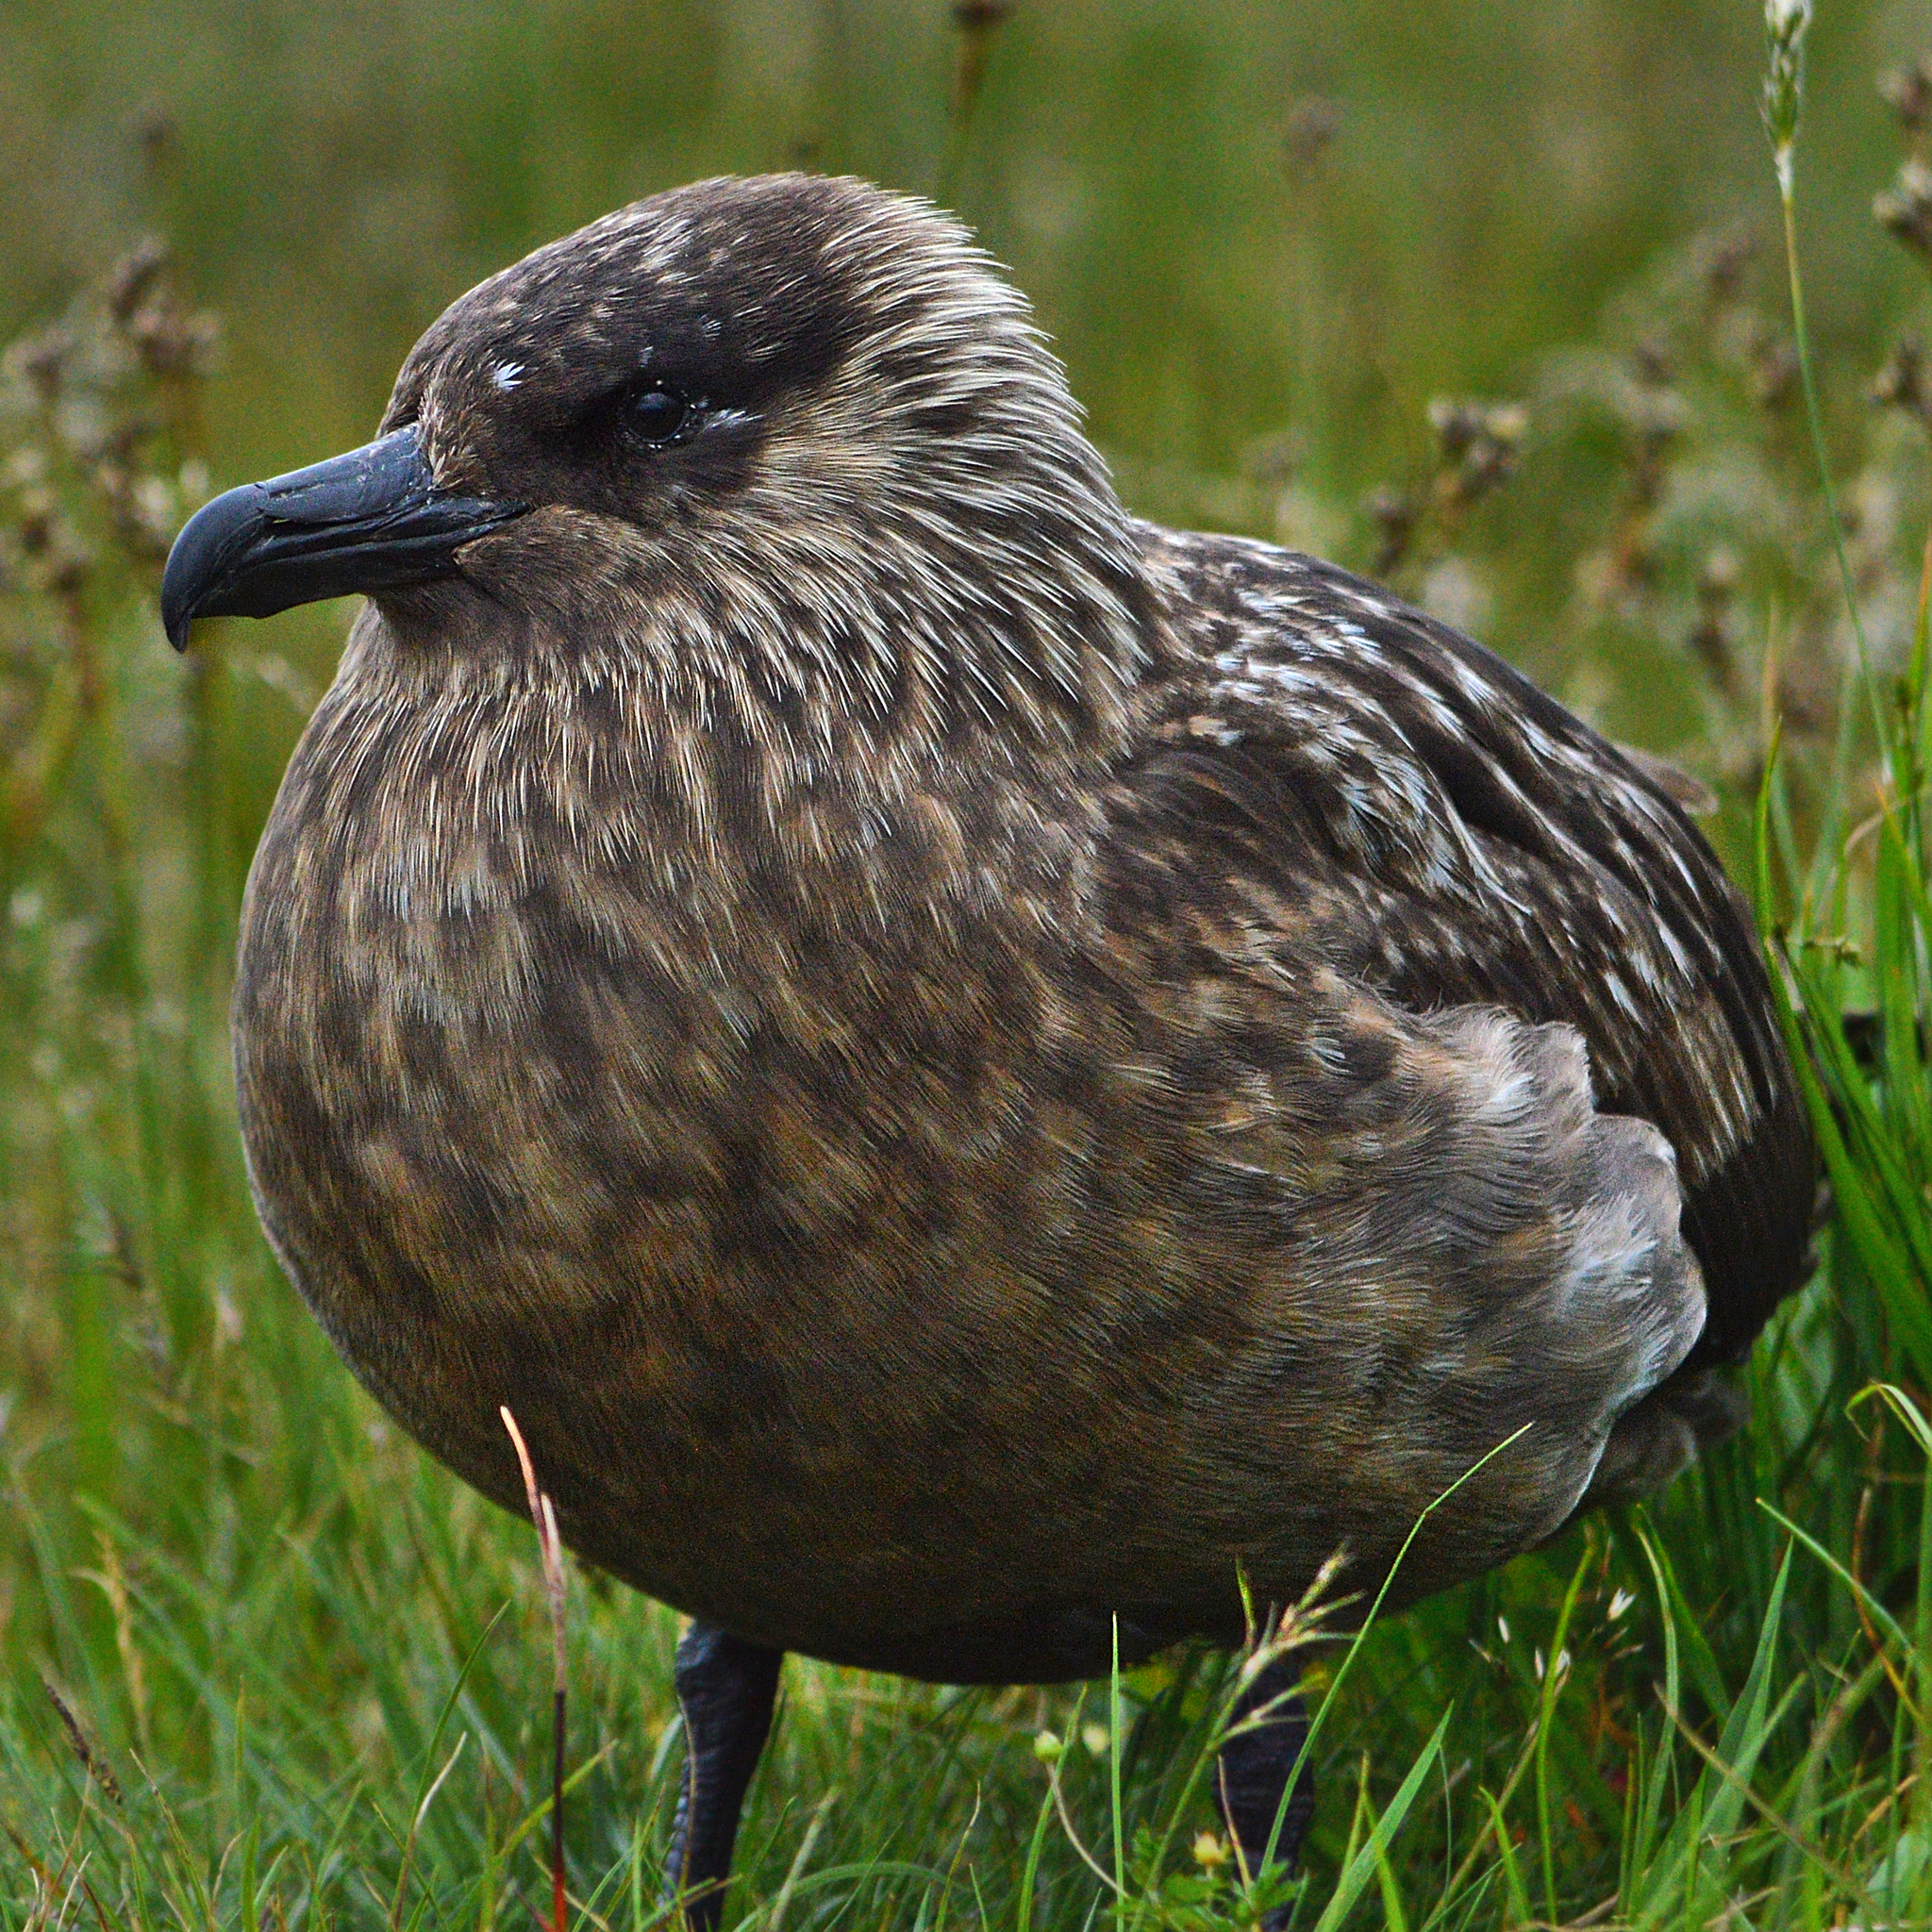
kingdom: Animalia
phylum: Chordata
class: Aves
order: Charadriiformes
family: Stercorariidae
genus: Stercorarius
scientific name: Stercorarius skua
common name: Great skua
